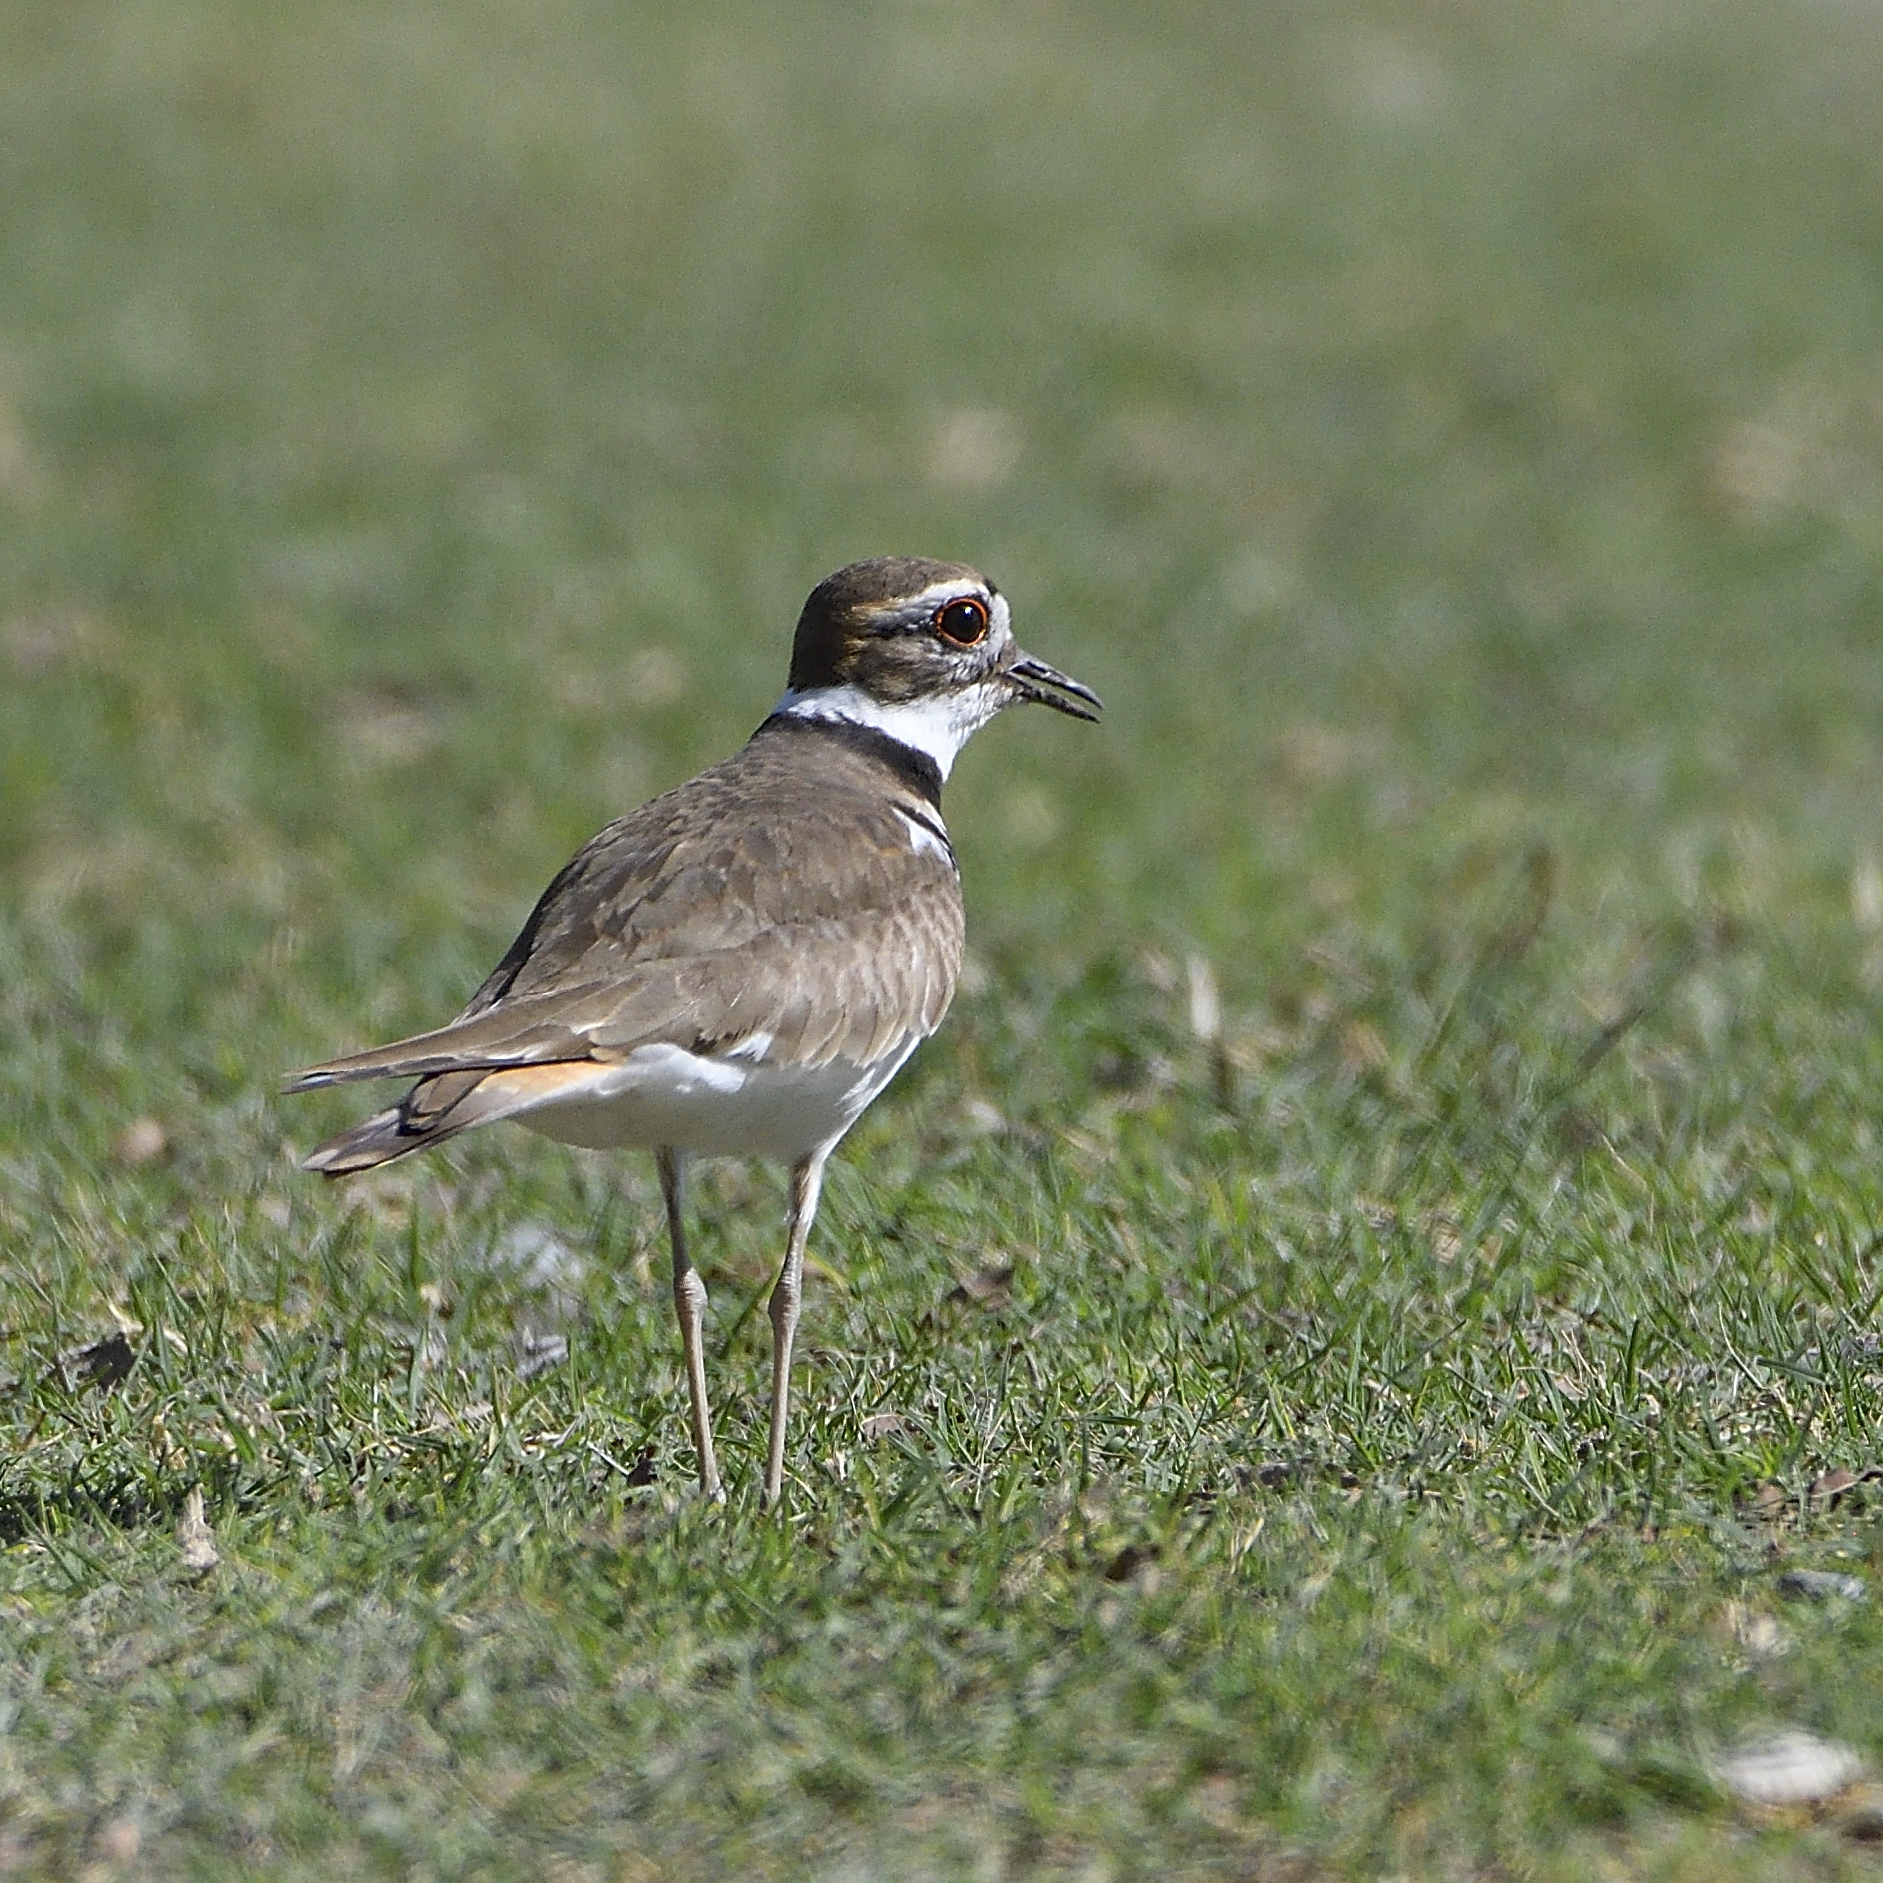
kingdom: Animalia
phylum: Chordata
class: Aves
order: Charadriiformes
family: Charadriidae
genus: Charadrius
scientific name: Charadrius vociferus
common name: Killdeer
